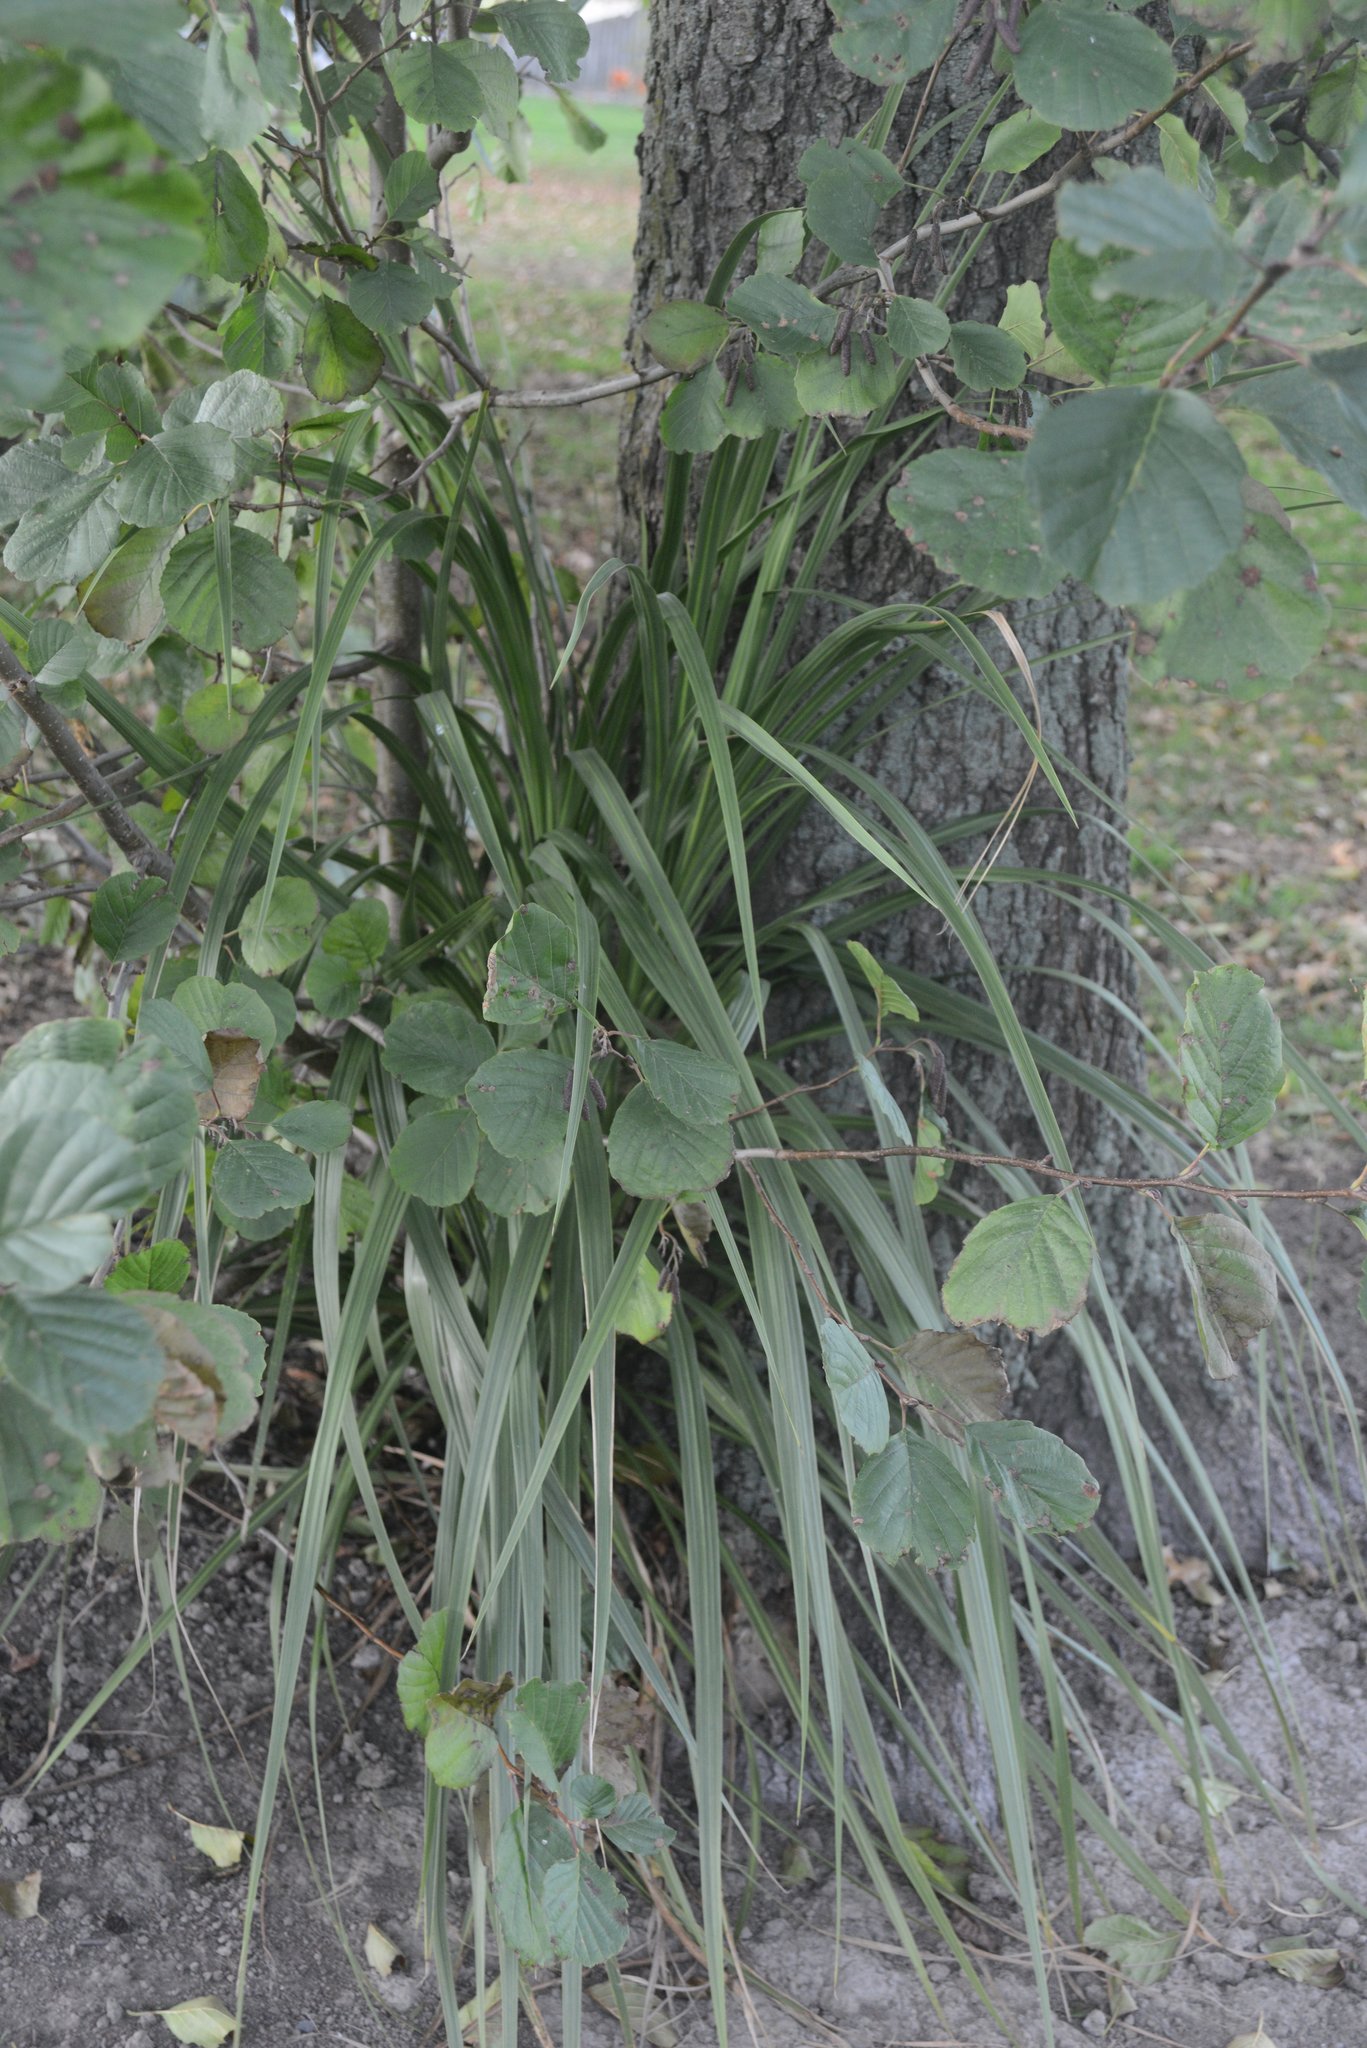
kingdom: Plantae
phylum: Tracheophyta
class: Liliopsida
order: Asparagales
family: Asparagaceae
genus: Cordyline
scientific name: Cordyline australis
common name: Cabbage-palm
